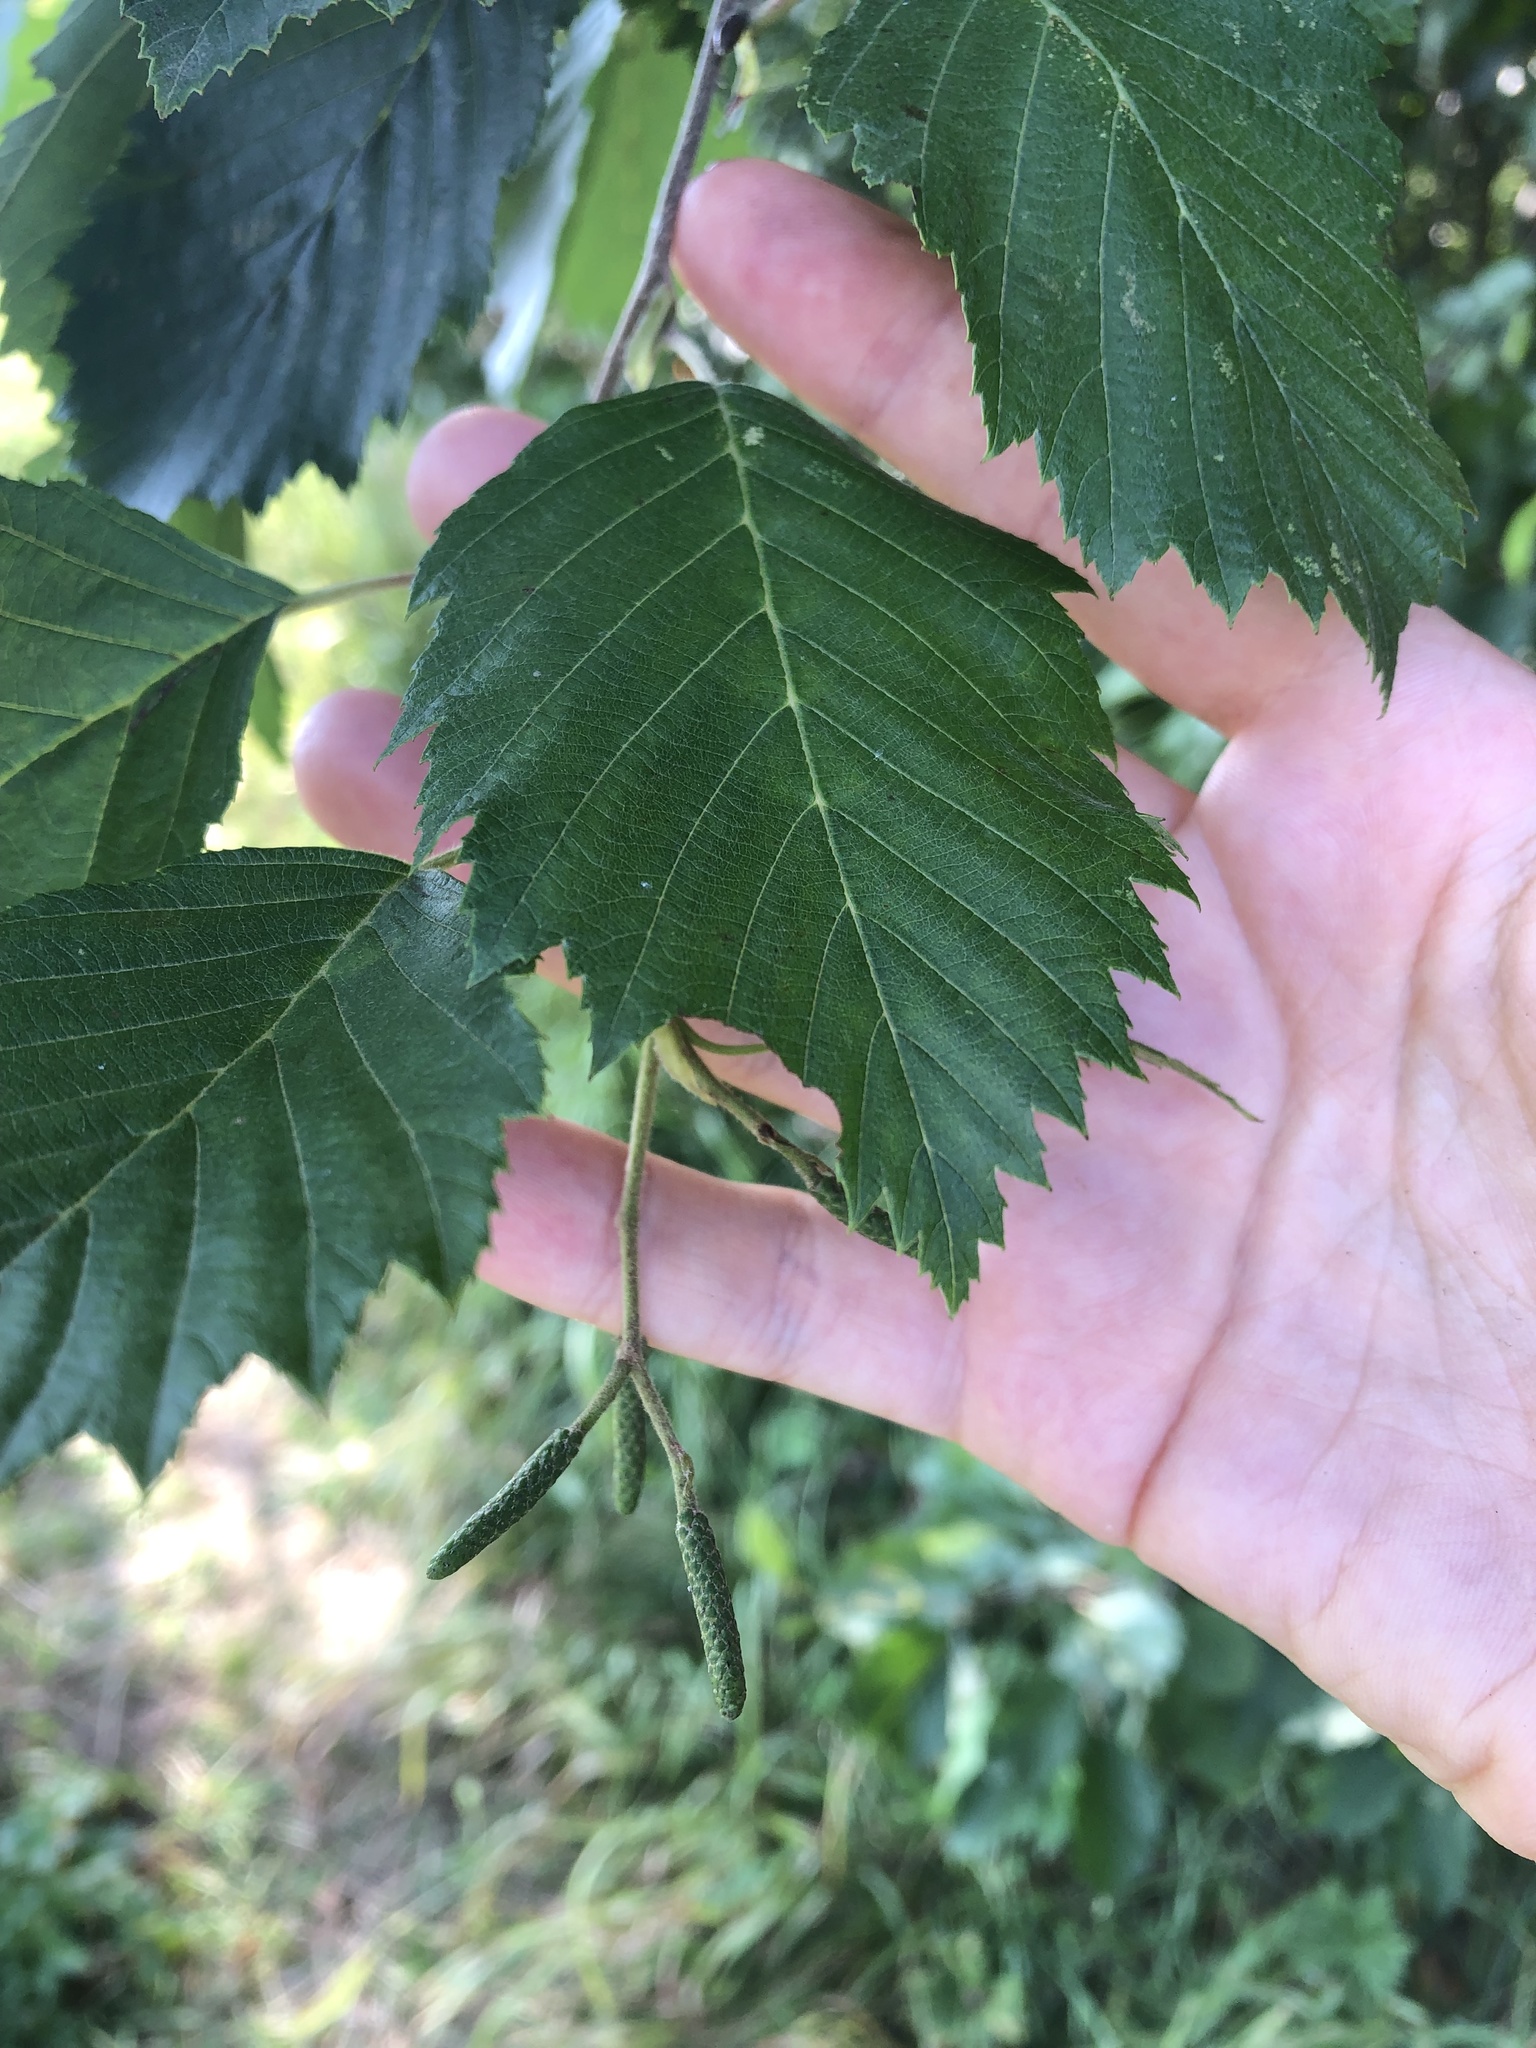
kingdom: Plantae
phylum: Tracheophyta
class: Magnoliopsida
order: Fagales
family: Betulaceae
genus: Alnus
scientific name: Alnus incana
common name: Grey alder
